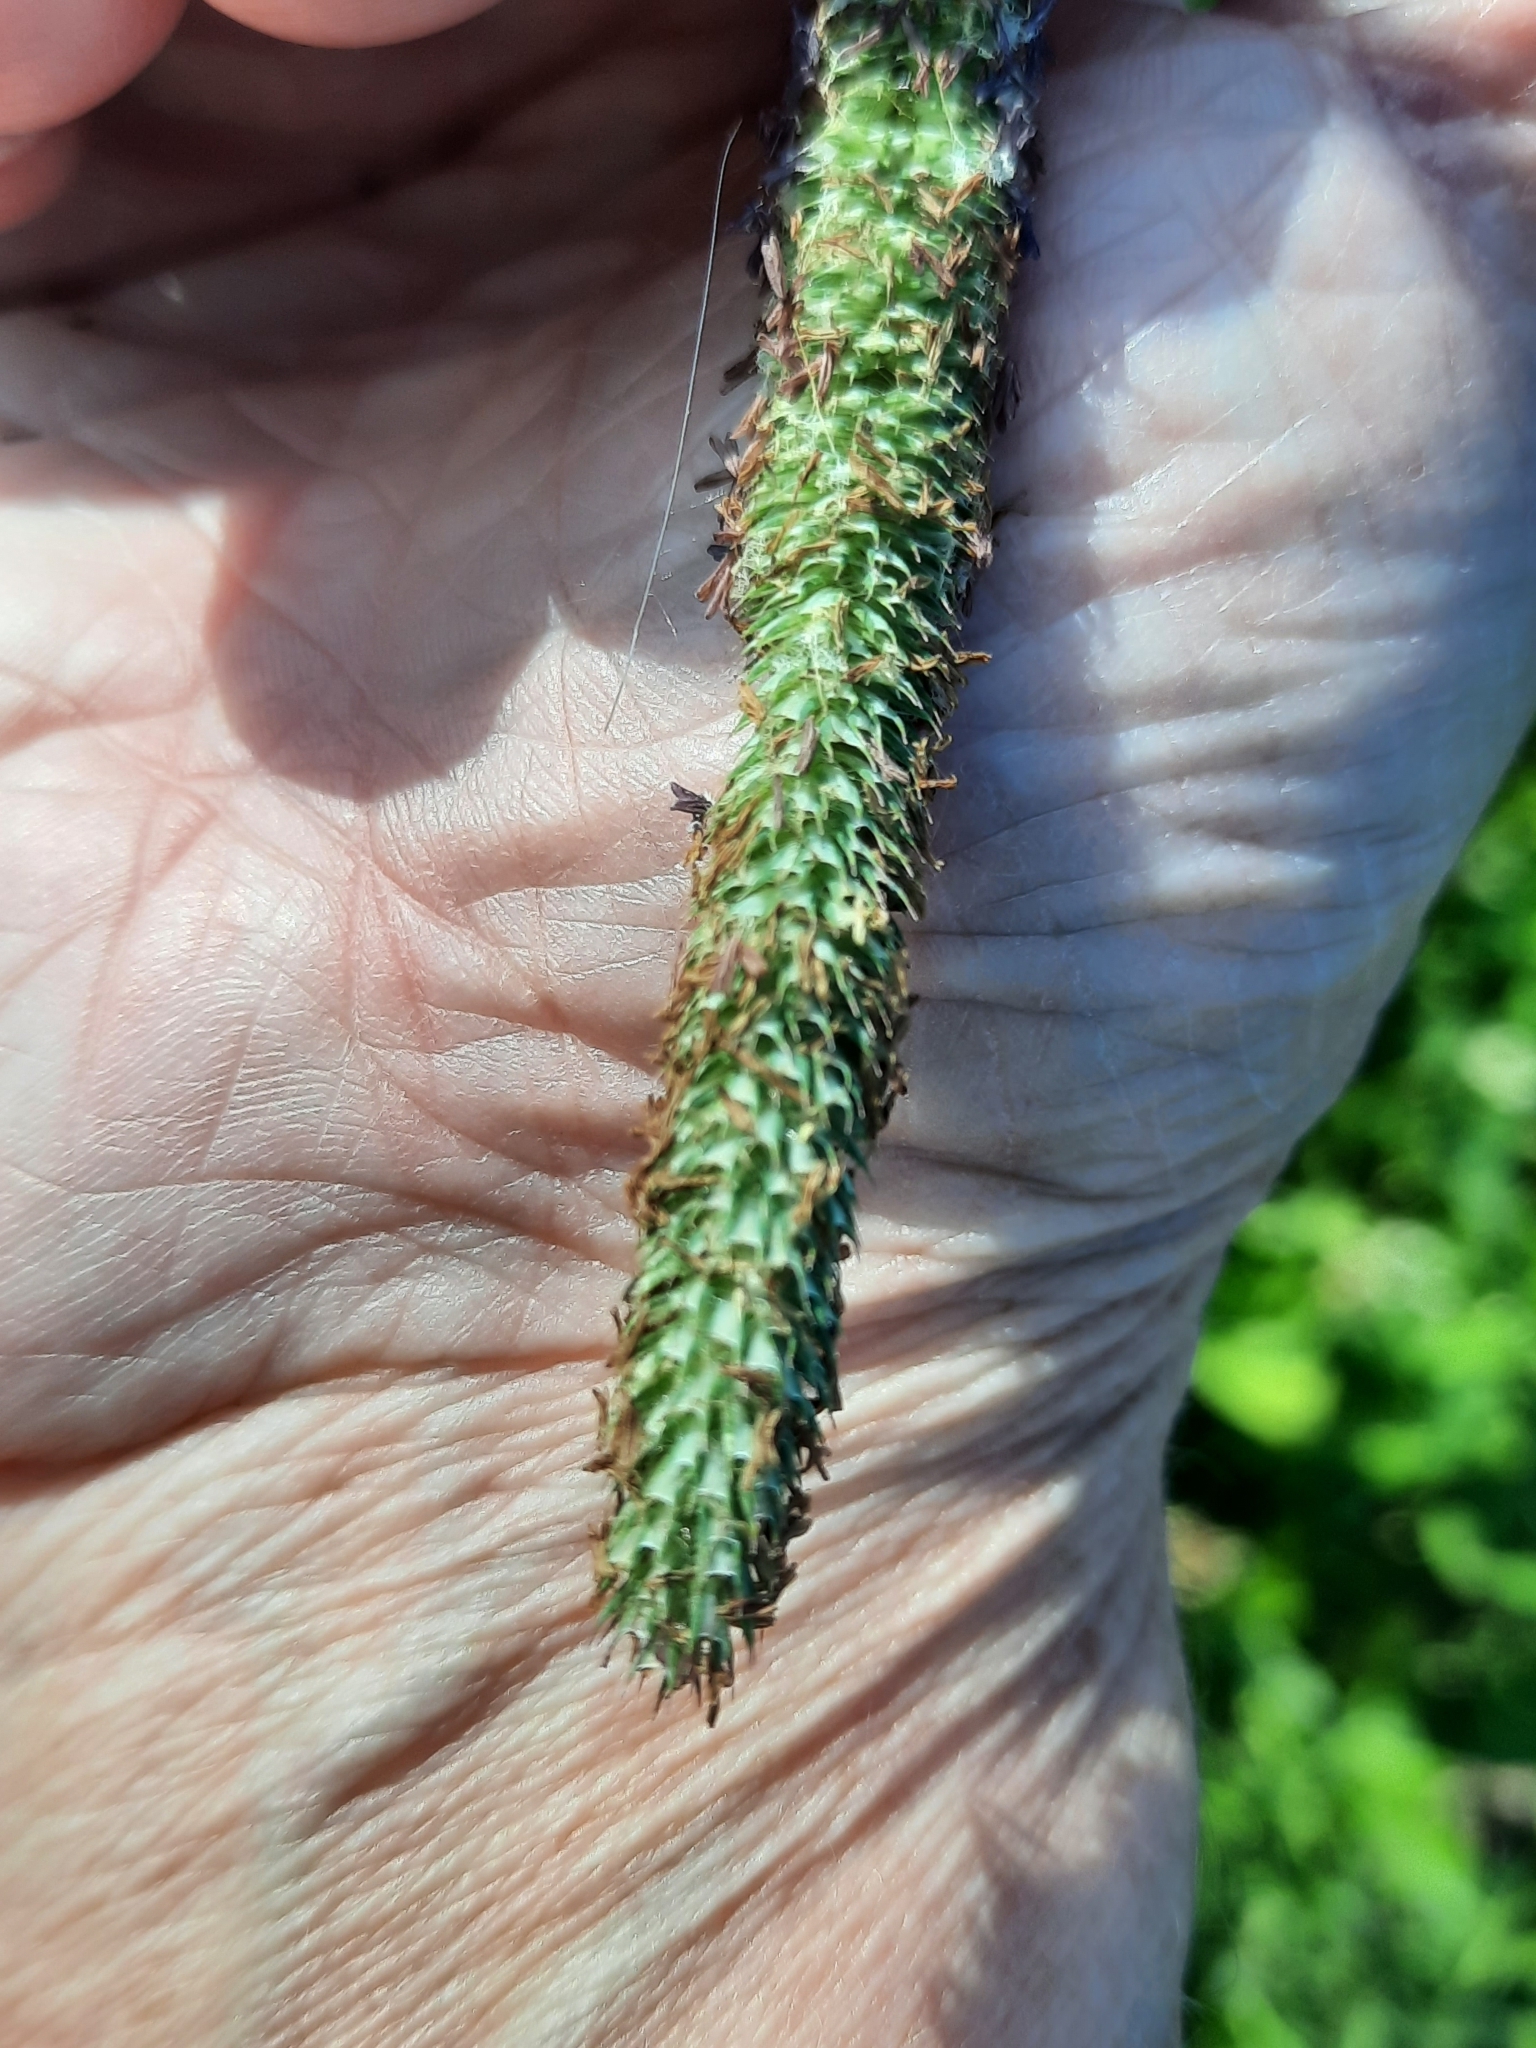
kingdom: Plantae
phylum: Tracheophyta
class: Liliopsida
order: Poales
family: Poaceae
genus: Phleum
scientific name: Phleum pratense
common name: Timothy grass
